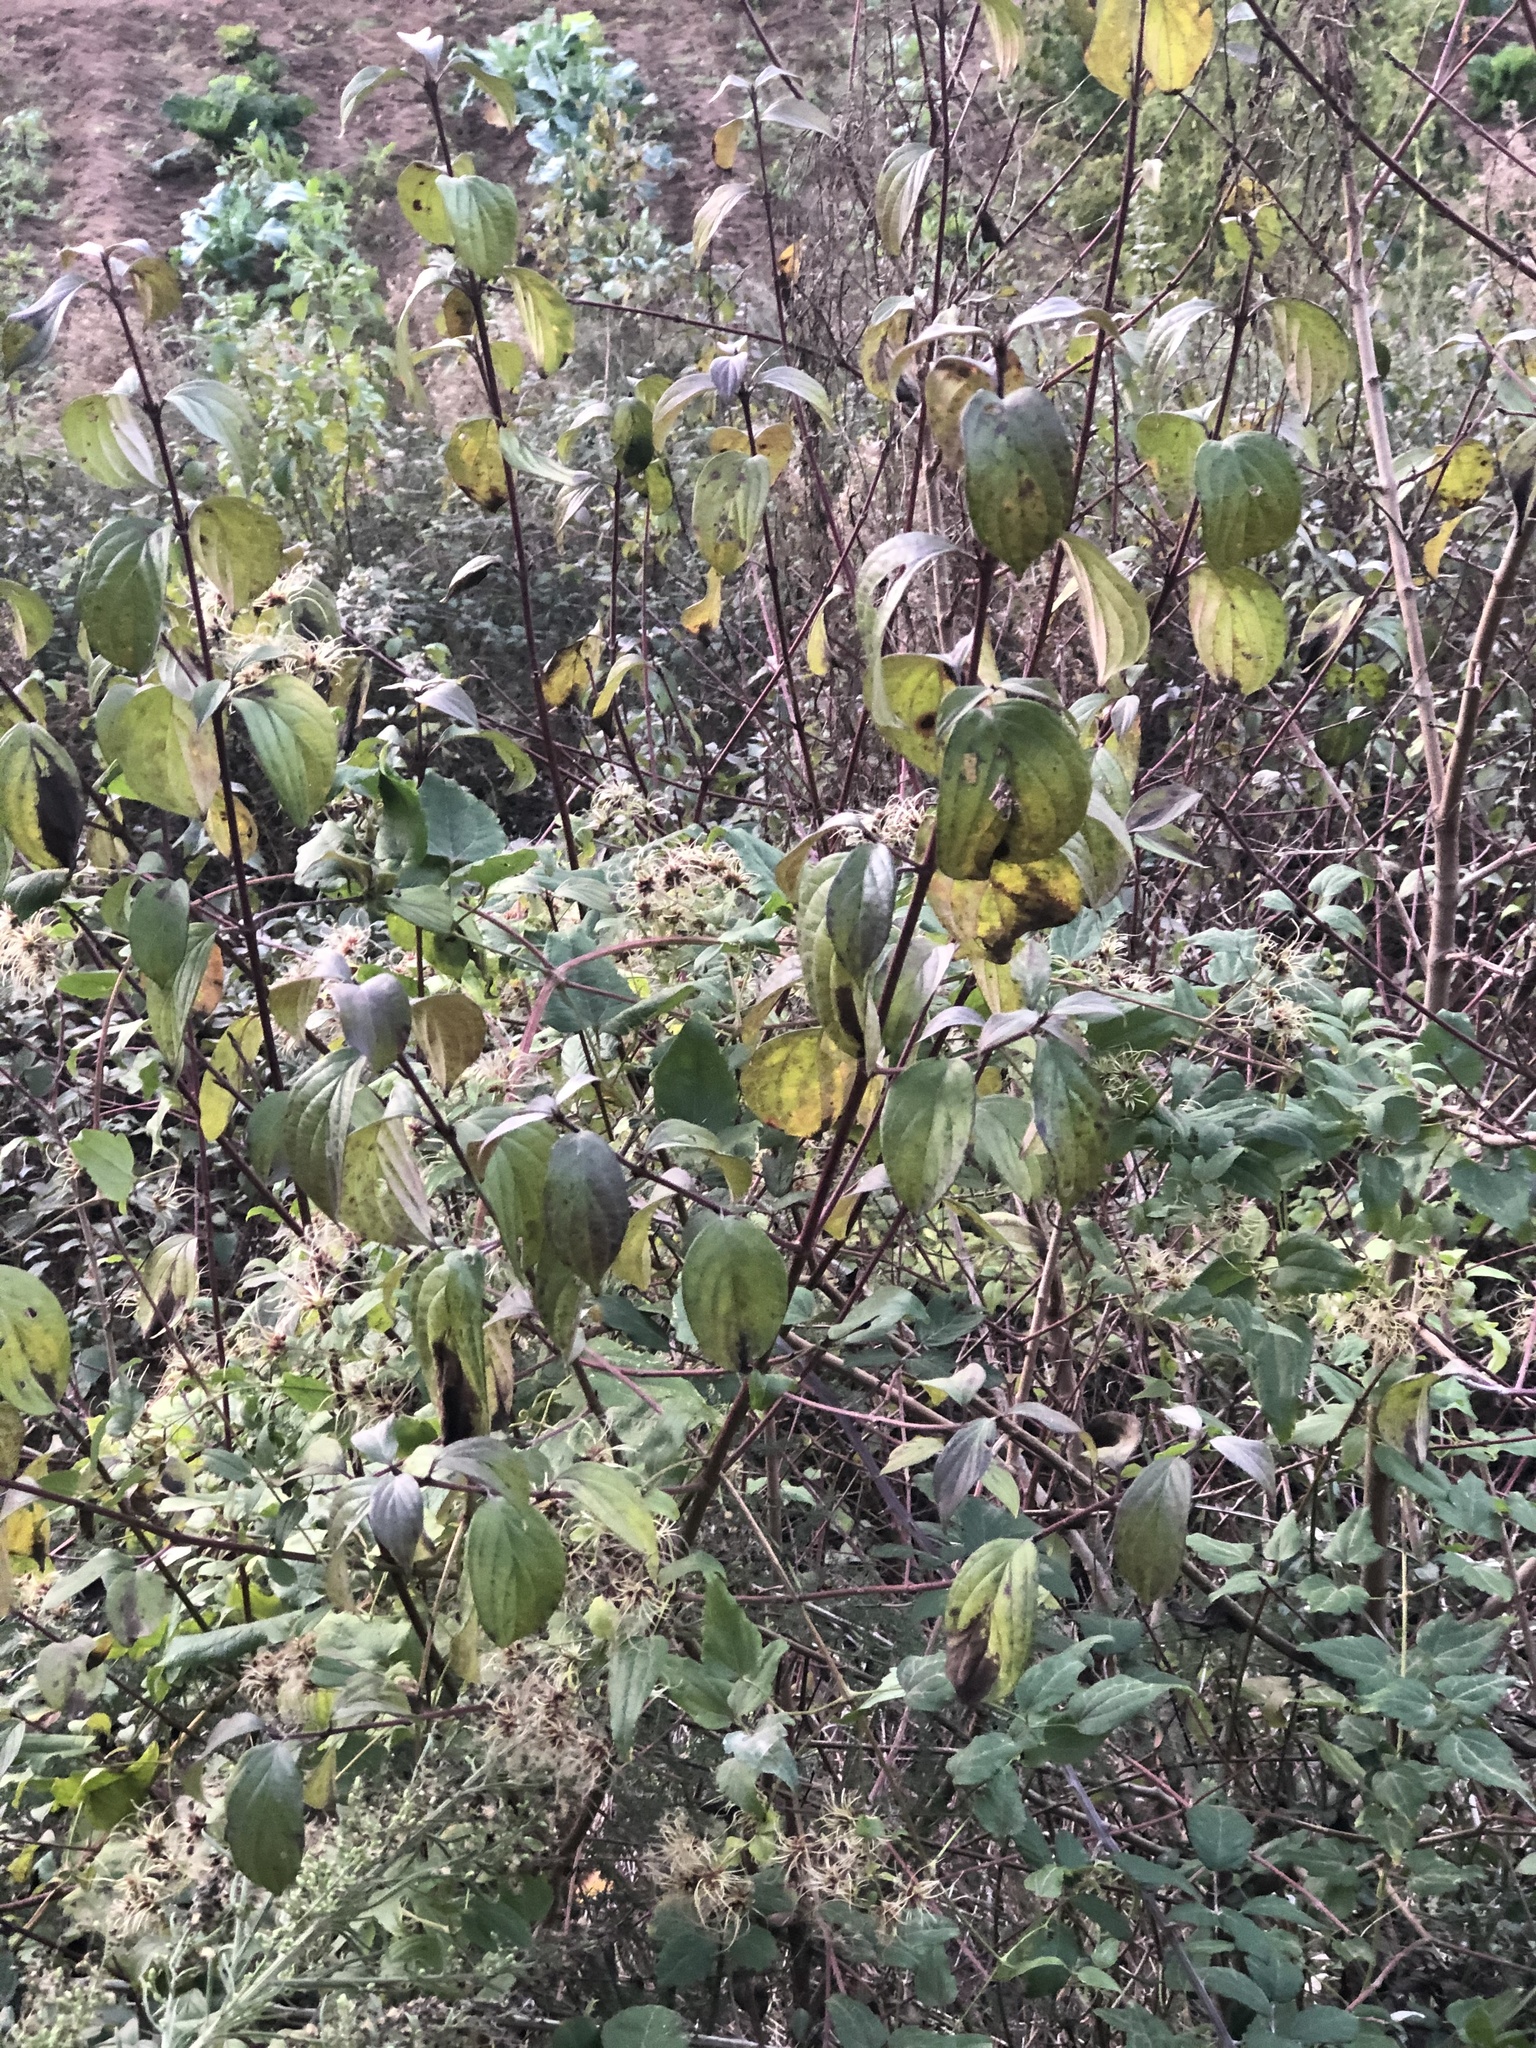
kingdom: Plantae
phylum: Tracheophyta
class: Magnoliopsida
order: Cornales
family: Cornaceae
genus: Cornus
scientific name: Cornus sanguinea
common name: Dogwood
